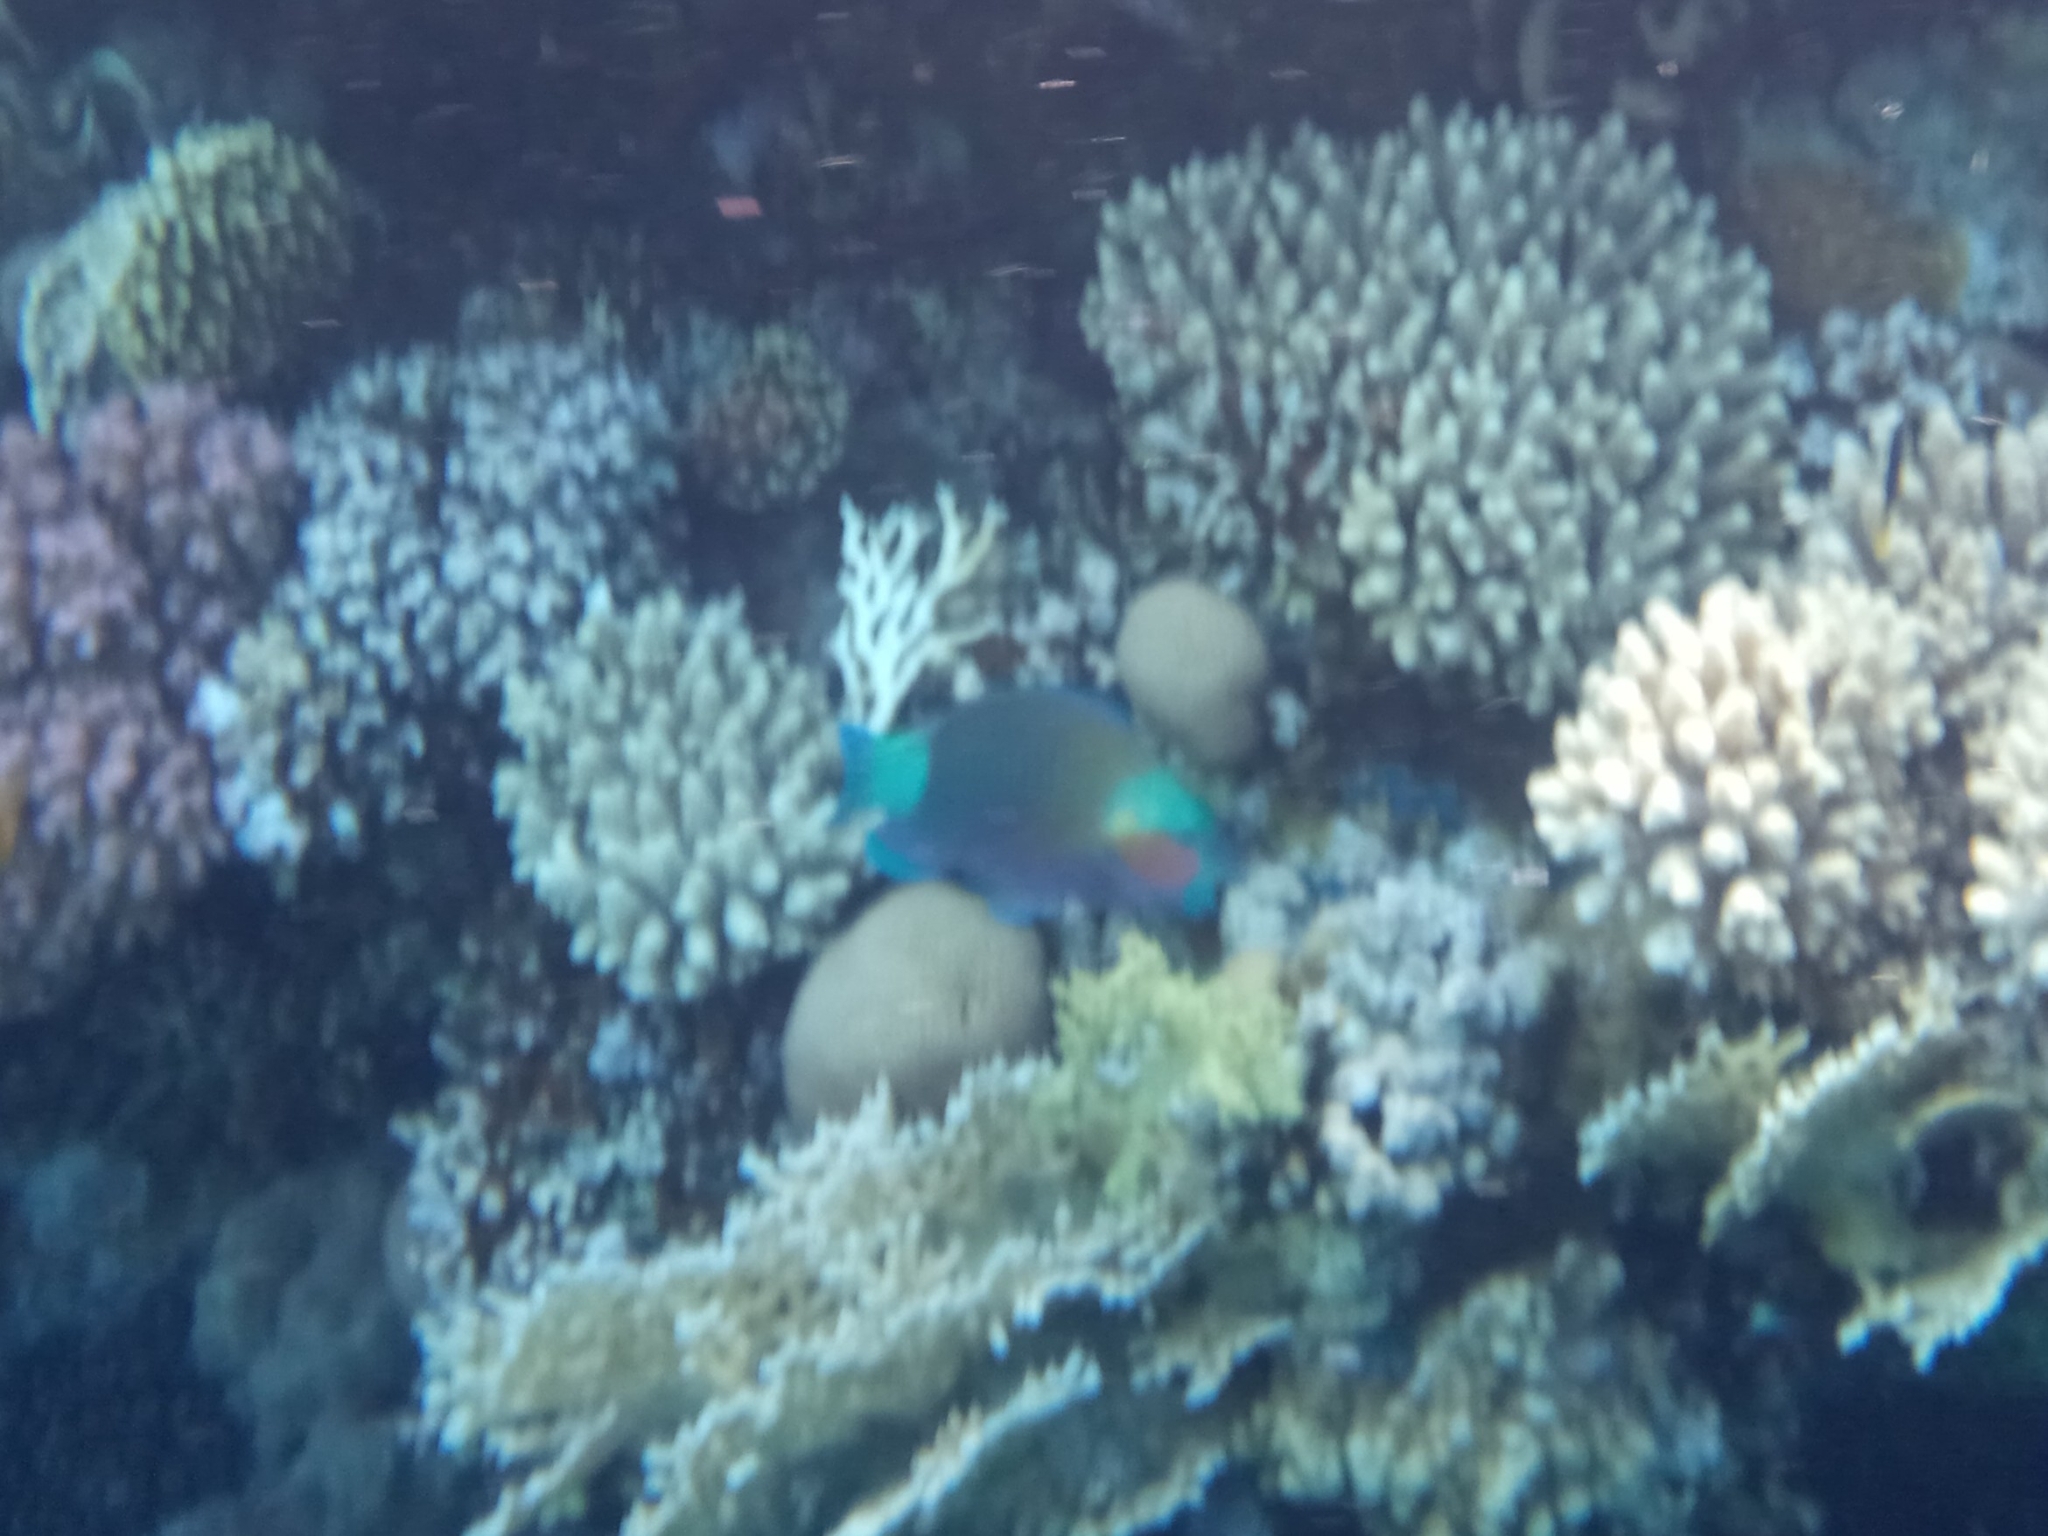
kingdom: Animalia
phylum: Chordata
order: Perciformes
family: Scaridae
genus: Chlorurus
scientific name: Chlorurus sordidus
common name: Bullethead parrotfish
